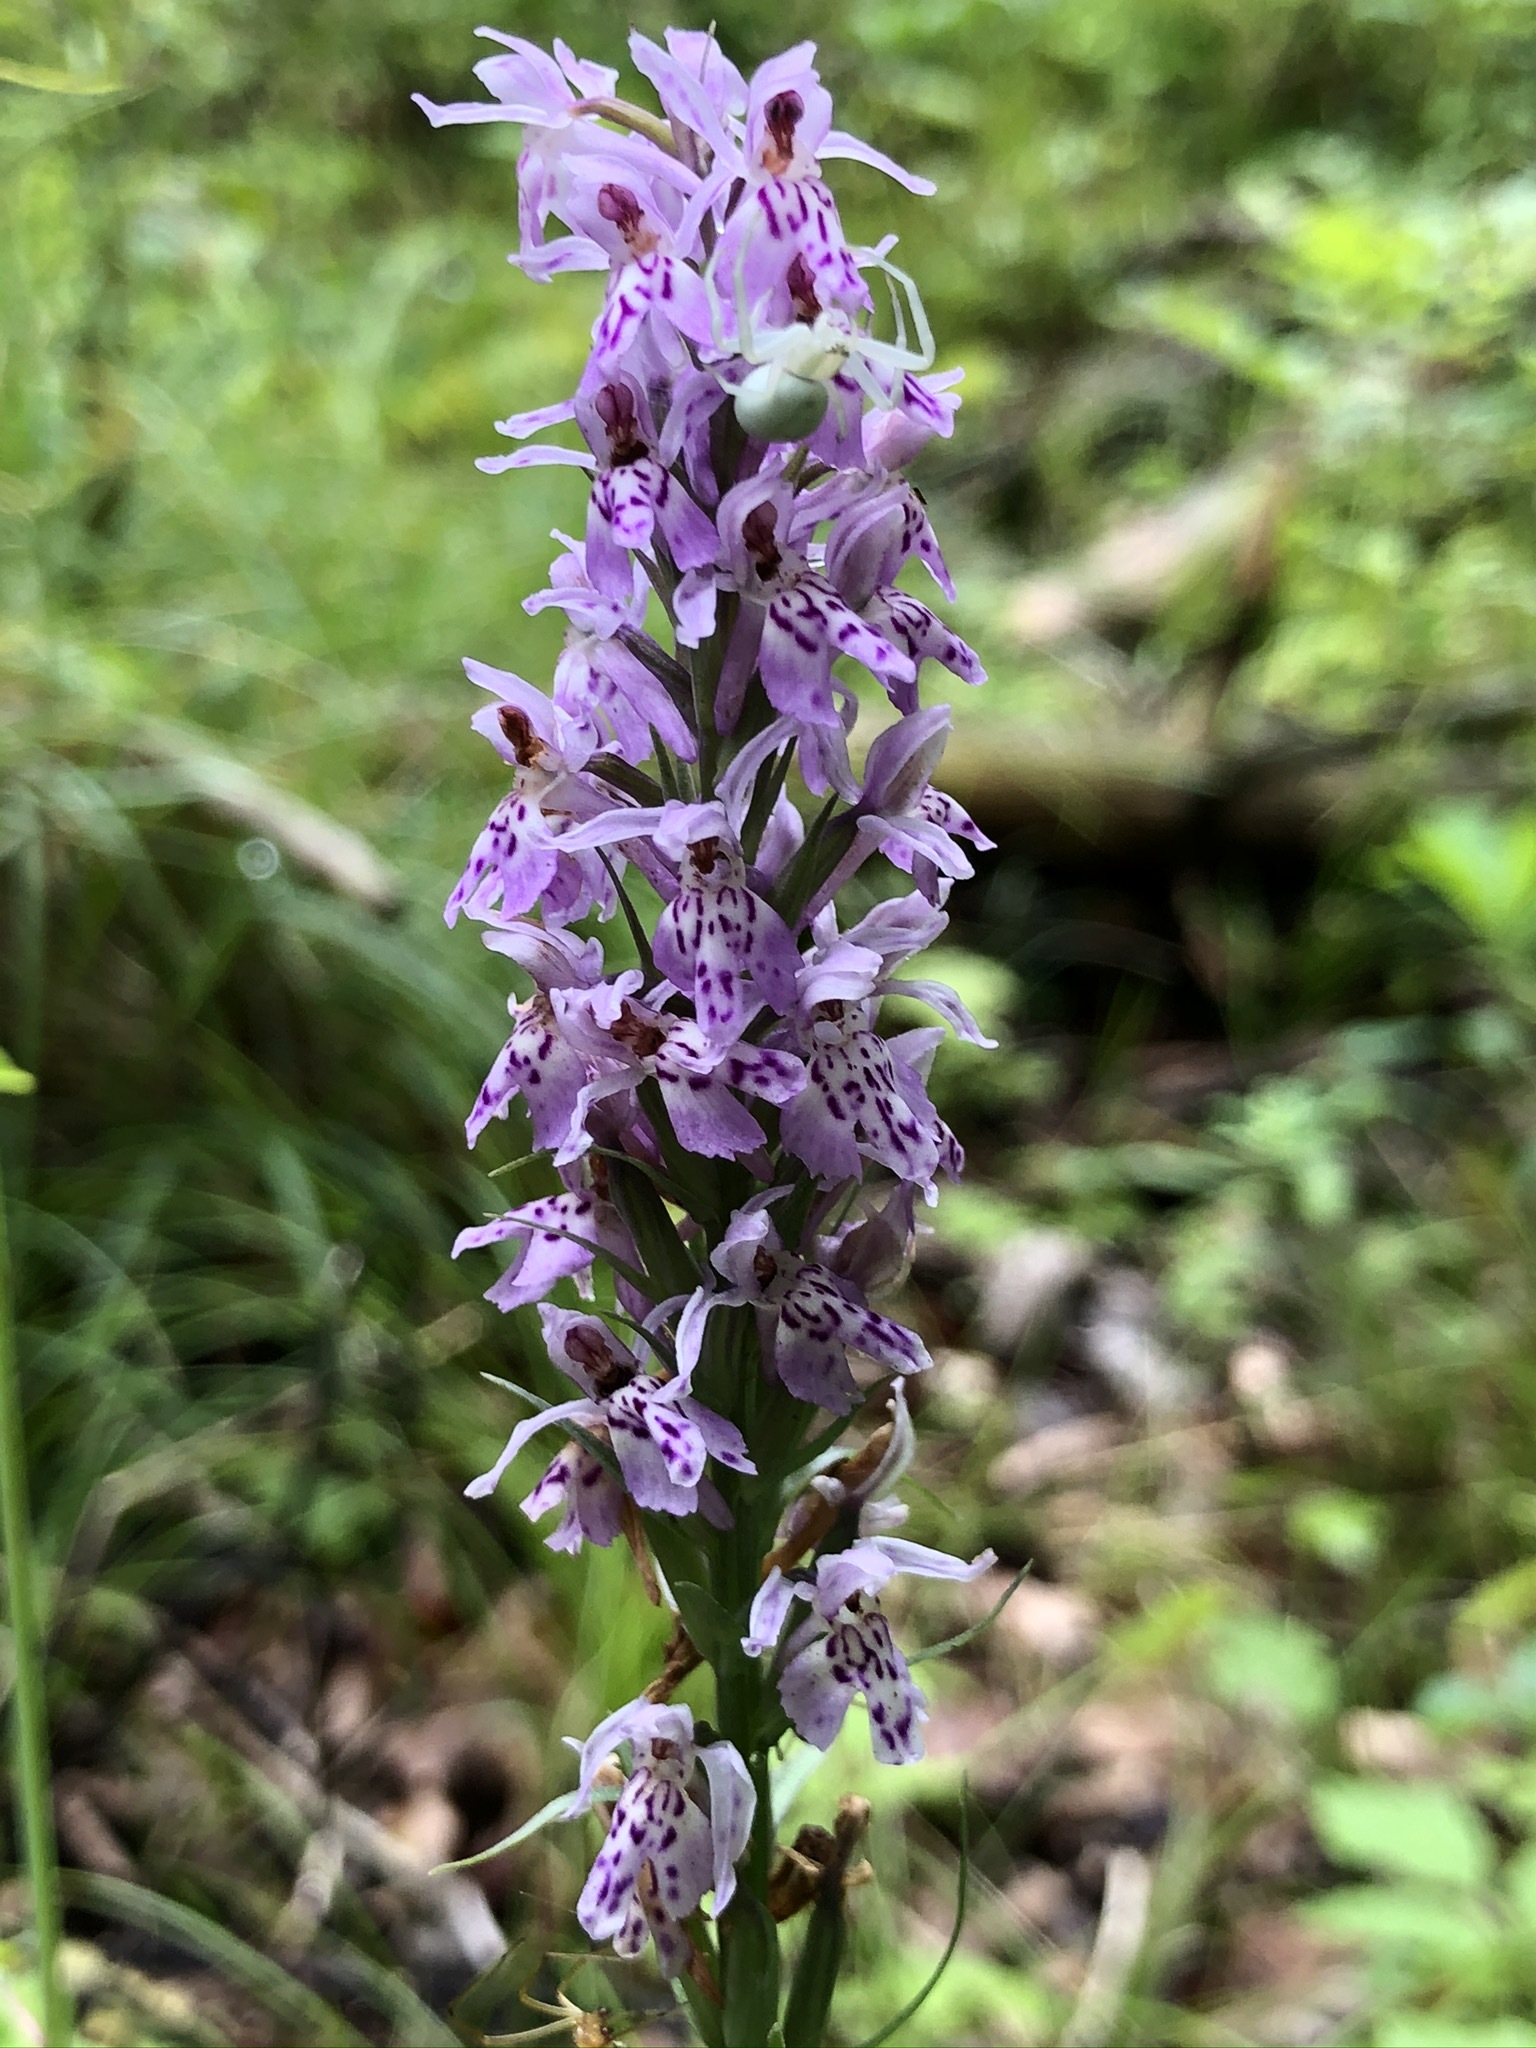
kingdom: Plantae
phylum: Tracheophyta
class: Liliopsida
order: Asparagales
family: Orchidaceae
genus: Dactylorhiza
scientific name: Dactylorhiza maculata
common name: Heath spotted-orchid
